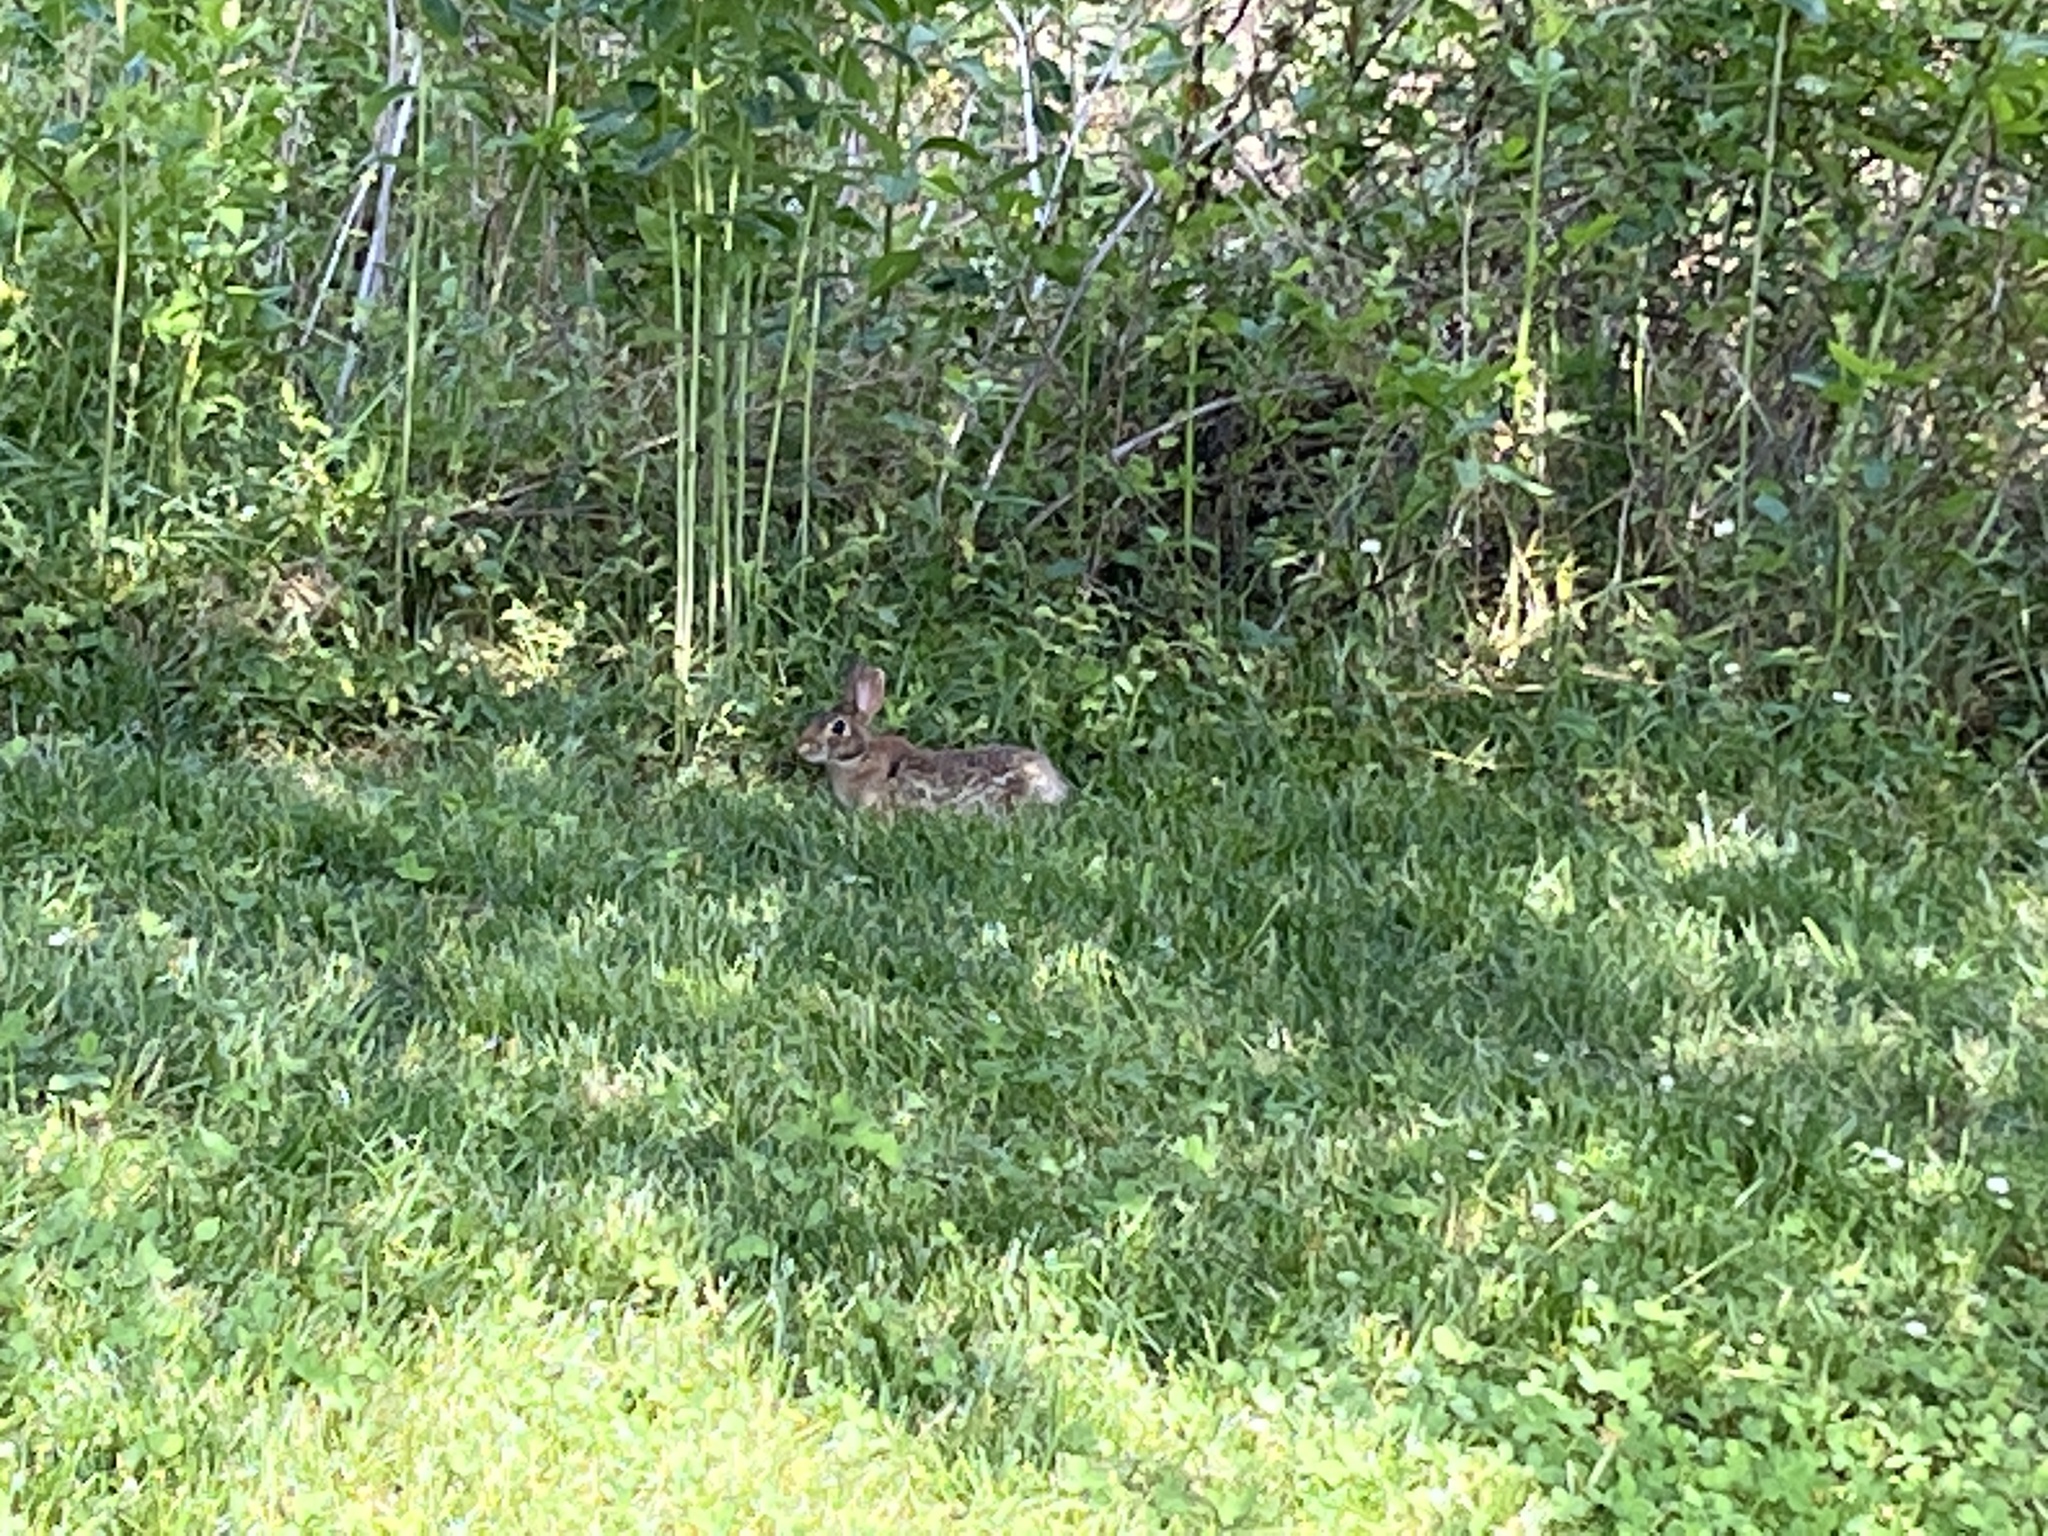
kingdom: Animalia
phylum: Chordata
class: Mammalia
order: Lagomorpha
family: Leporidae
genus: Sylvilagus
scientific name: Sylvilagus floridanus
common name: Eastern cottontail
